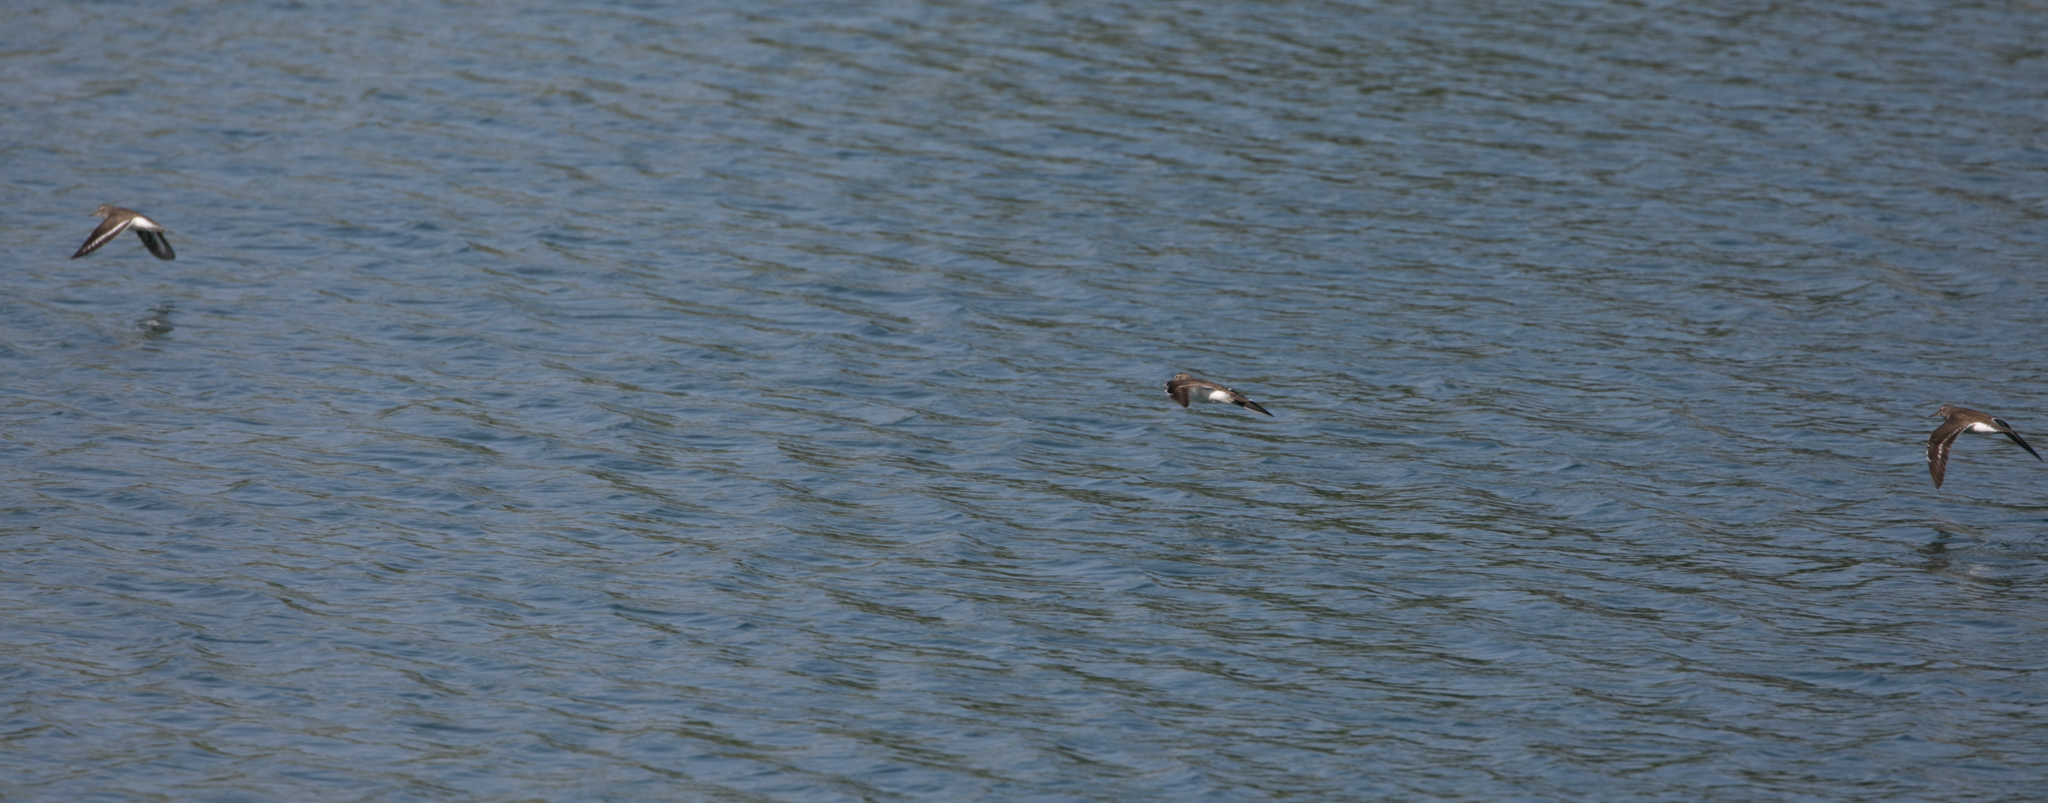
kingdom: Animalia
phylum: Chordata
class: Aves
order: Charadriiformes
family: Scolopacidae
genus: Actitis
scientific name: Actitis hypoleucos
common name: Common sandpiper
